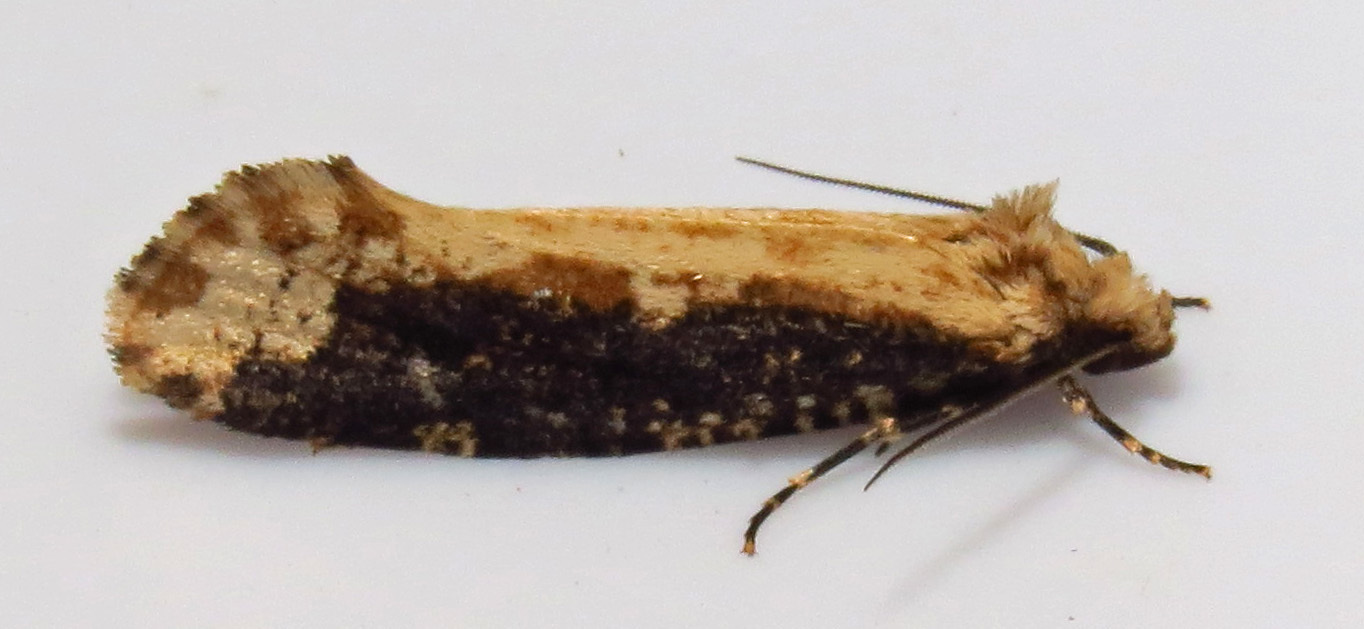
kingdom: Animalia
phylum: Arthropoda
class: Insecta
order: Lepidoptera
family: Tineidae
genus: Scardia
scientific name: Scardia amurensis
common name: Tineid moth
